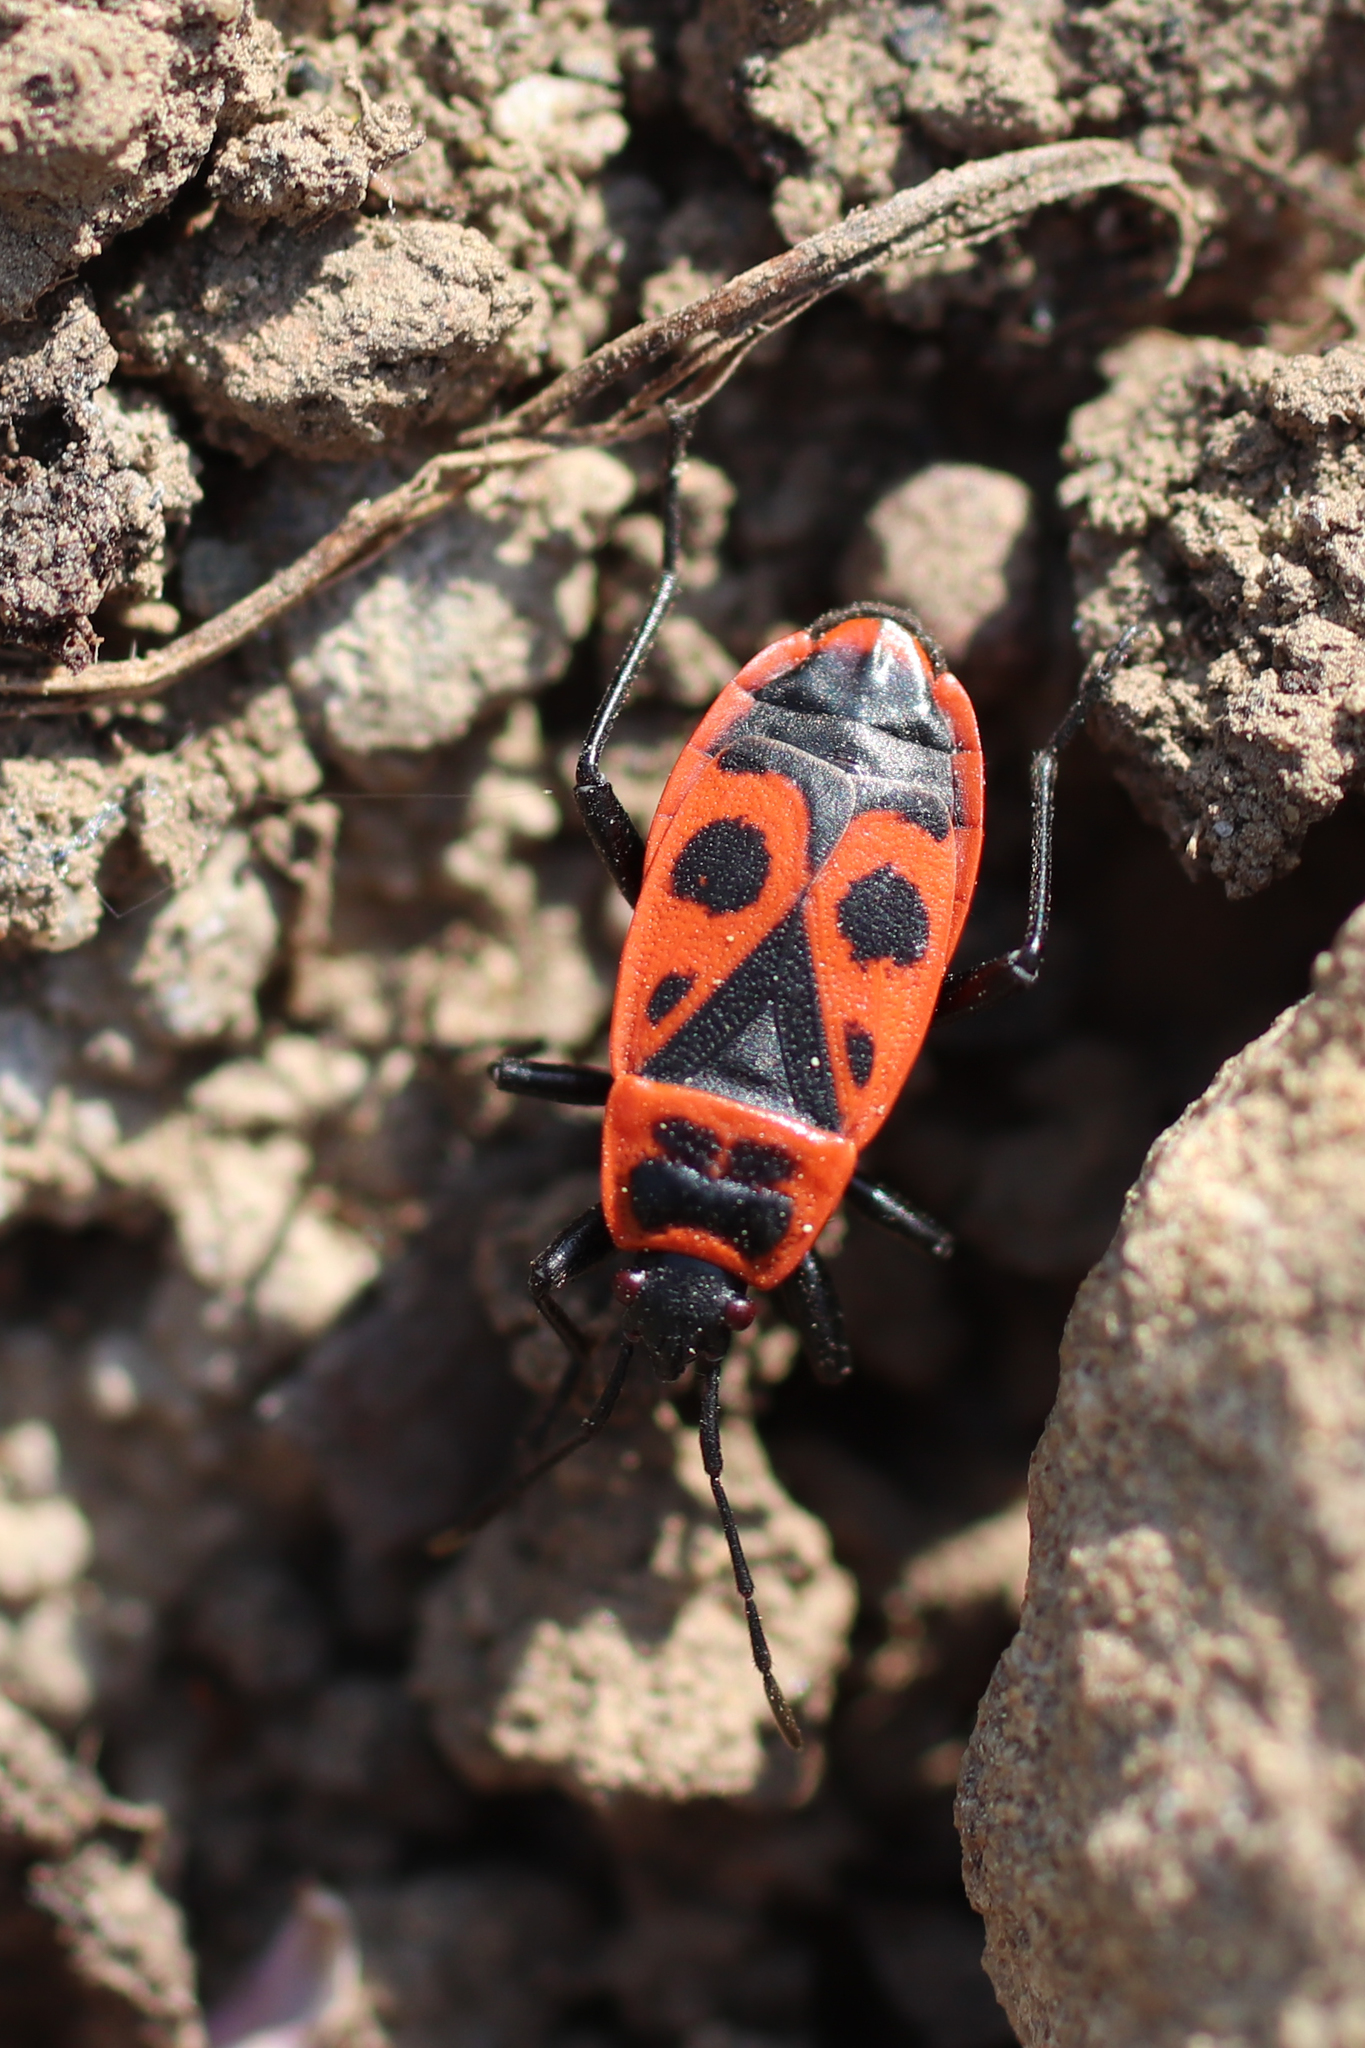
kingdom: Animalia
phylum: Arthropoda
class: Insecta
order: Hemiptera
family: Pyrrhocoridae
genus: Pyrrhocoris
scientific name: Pyrrhocoris apterus
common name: Firebug
